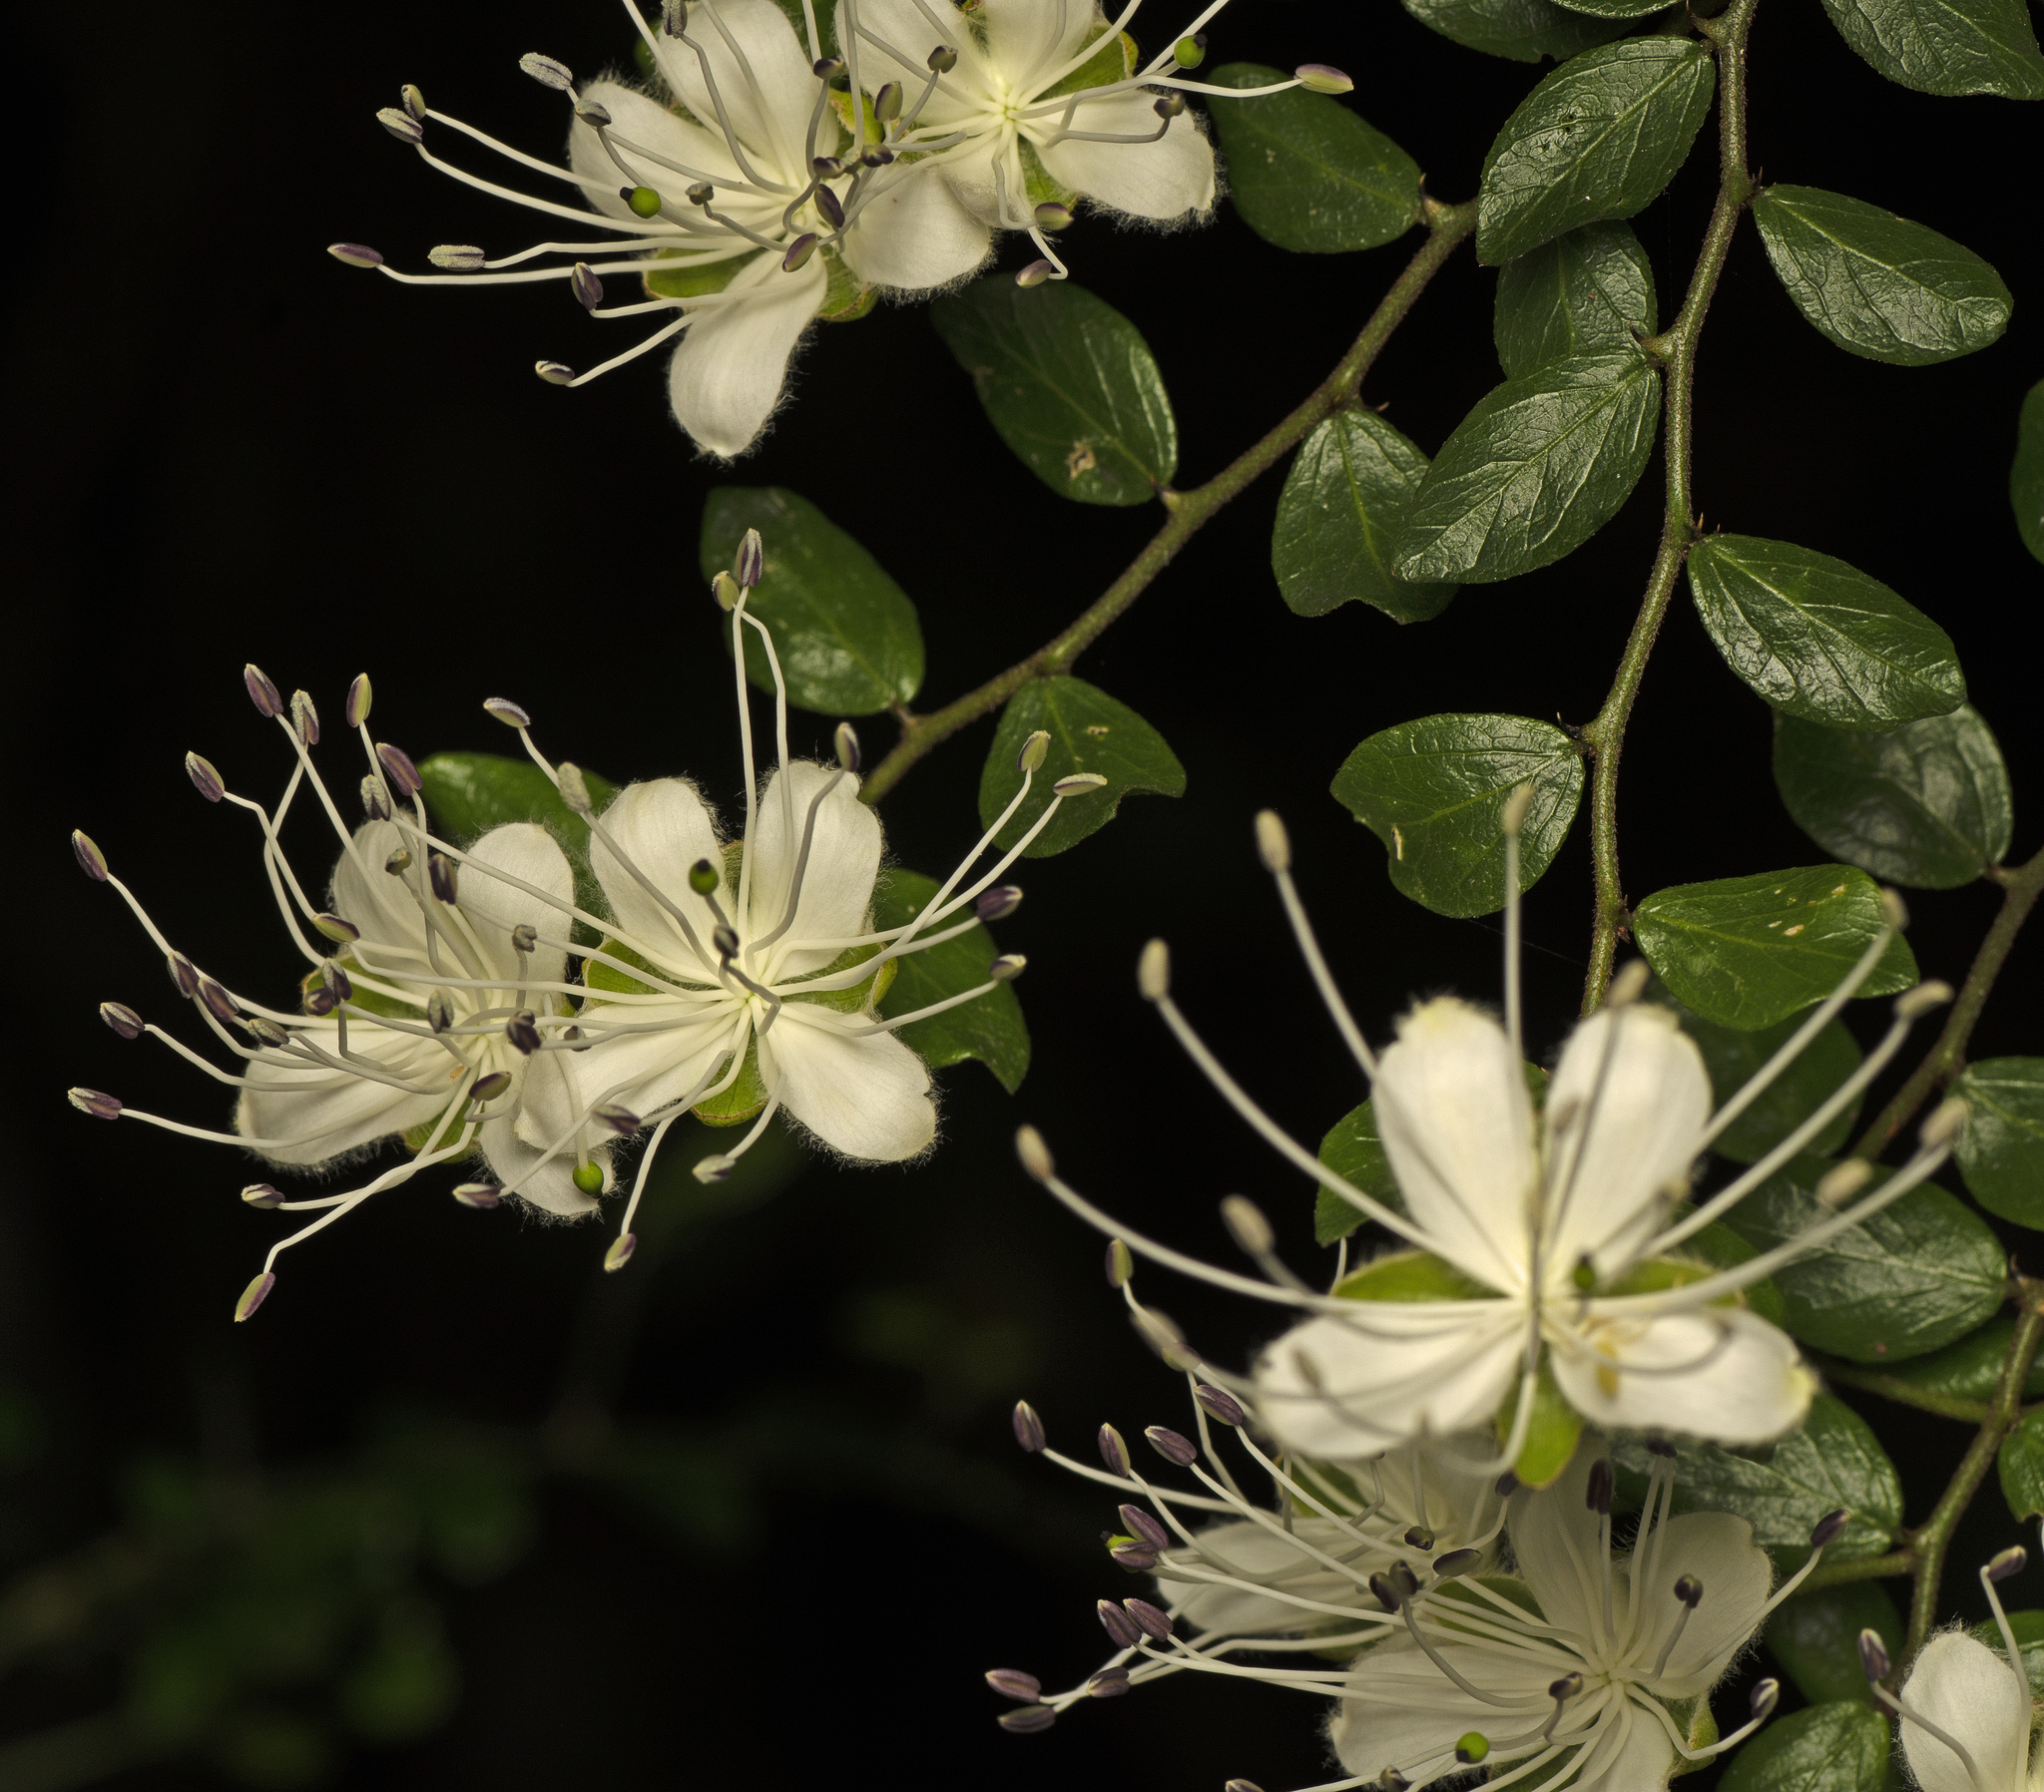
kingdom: Plantae
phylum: Tracheophyta
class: Magnoliopsida
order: Brassicales
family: Capparaceae
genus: Capparis
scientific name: Capparis sarmentosa
